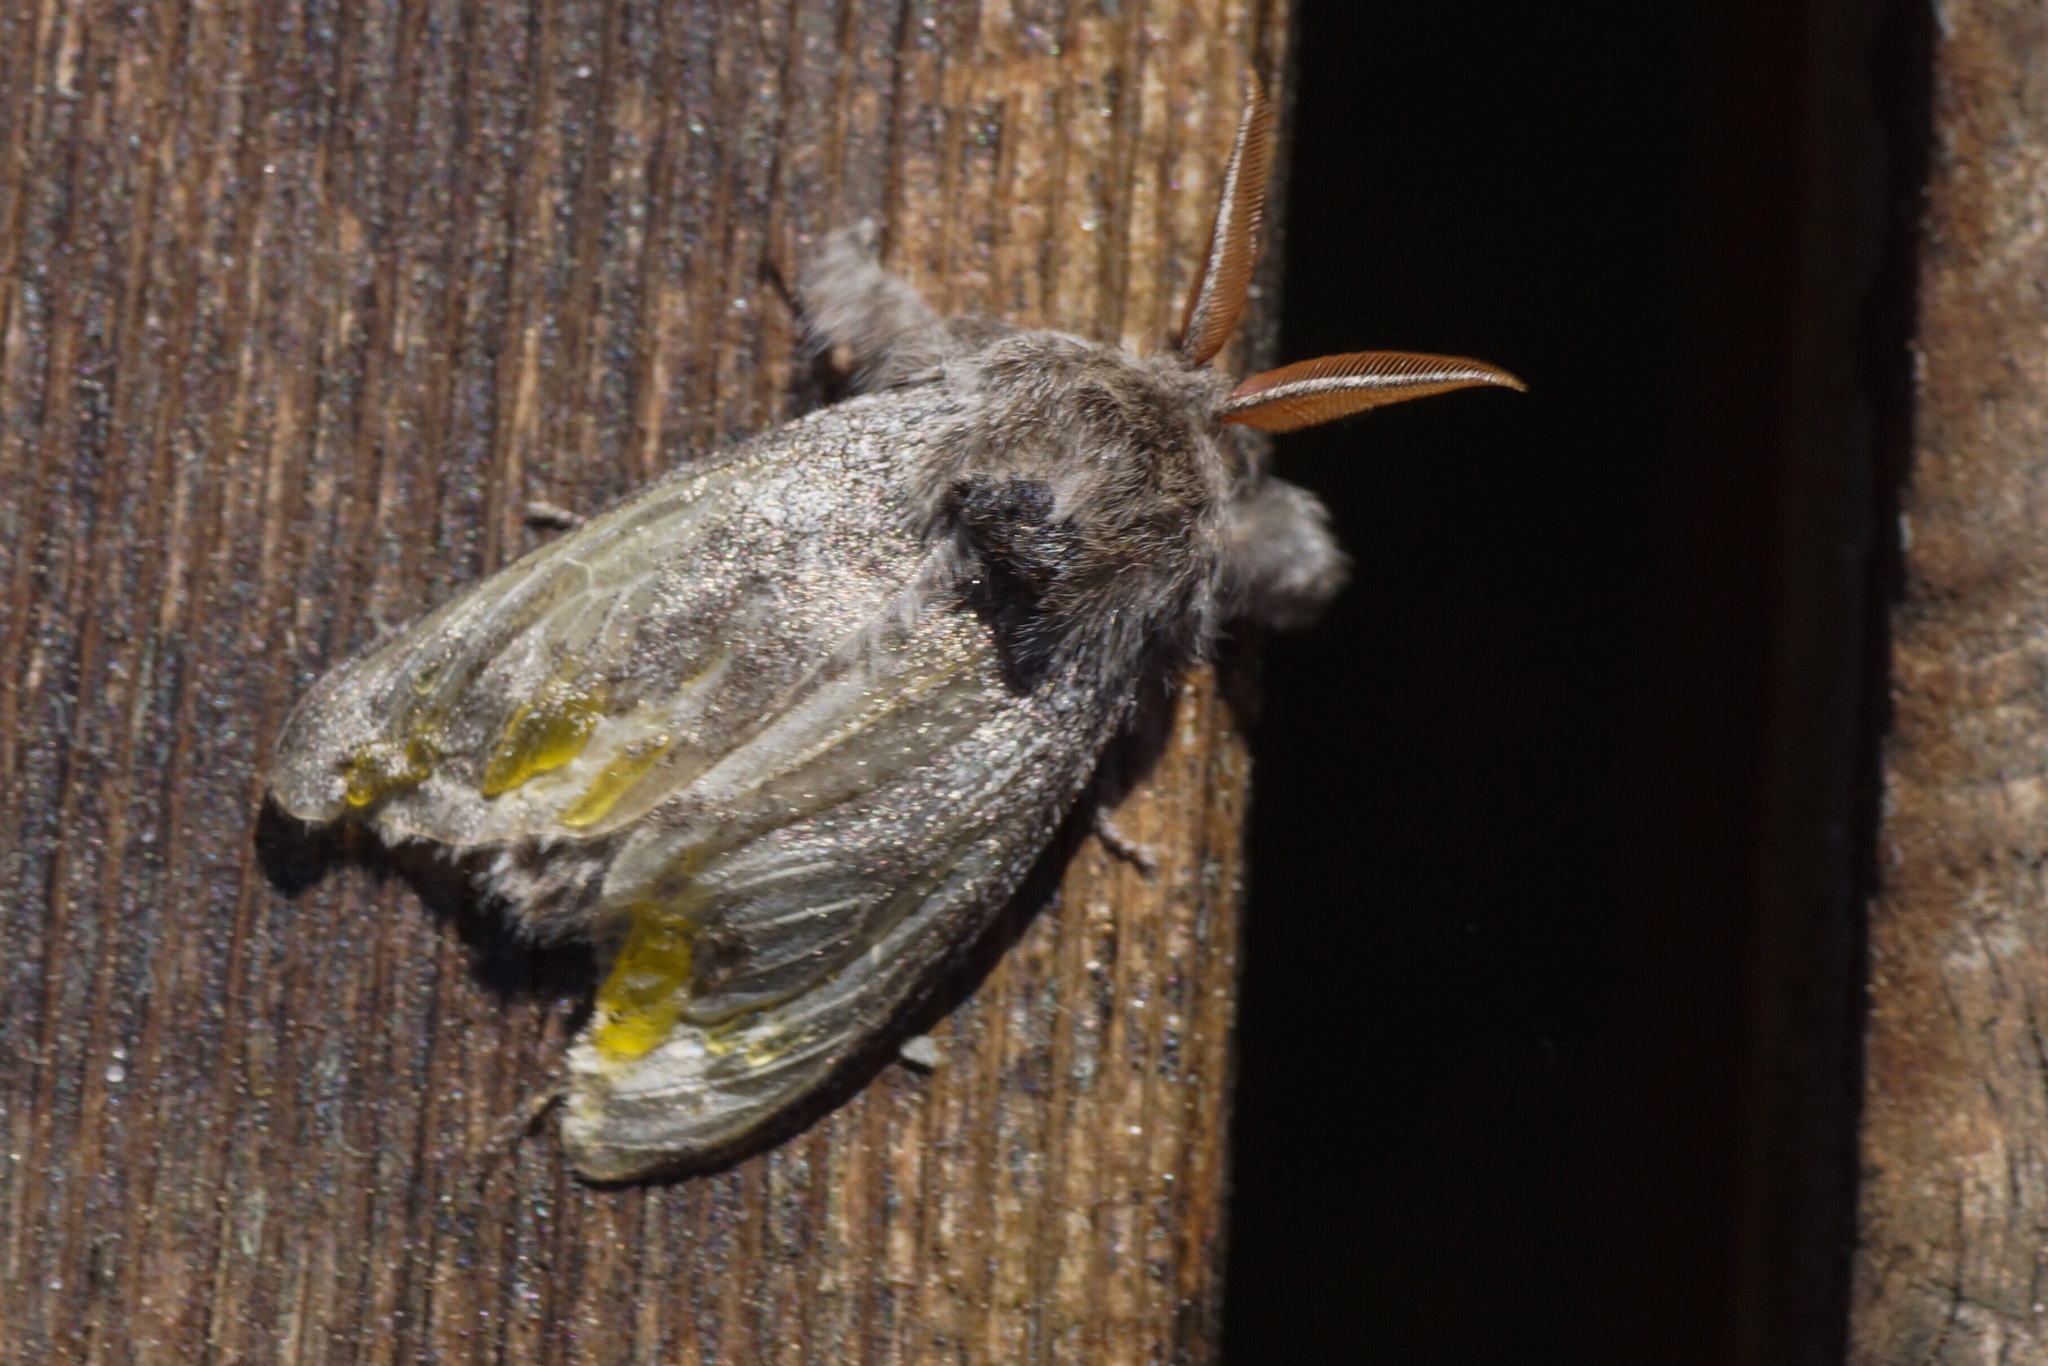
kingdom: Animalia
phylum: Arthropoda
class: Insecta
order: Lepidoptera
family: Erebidae
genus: Calliteara
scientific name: Calliteara pudibunda
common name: Pale tussock
